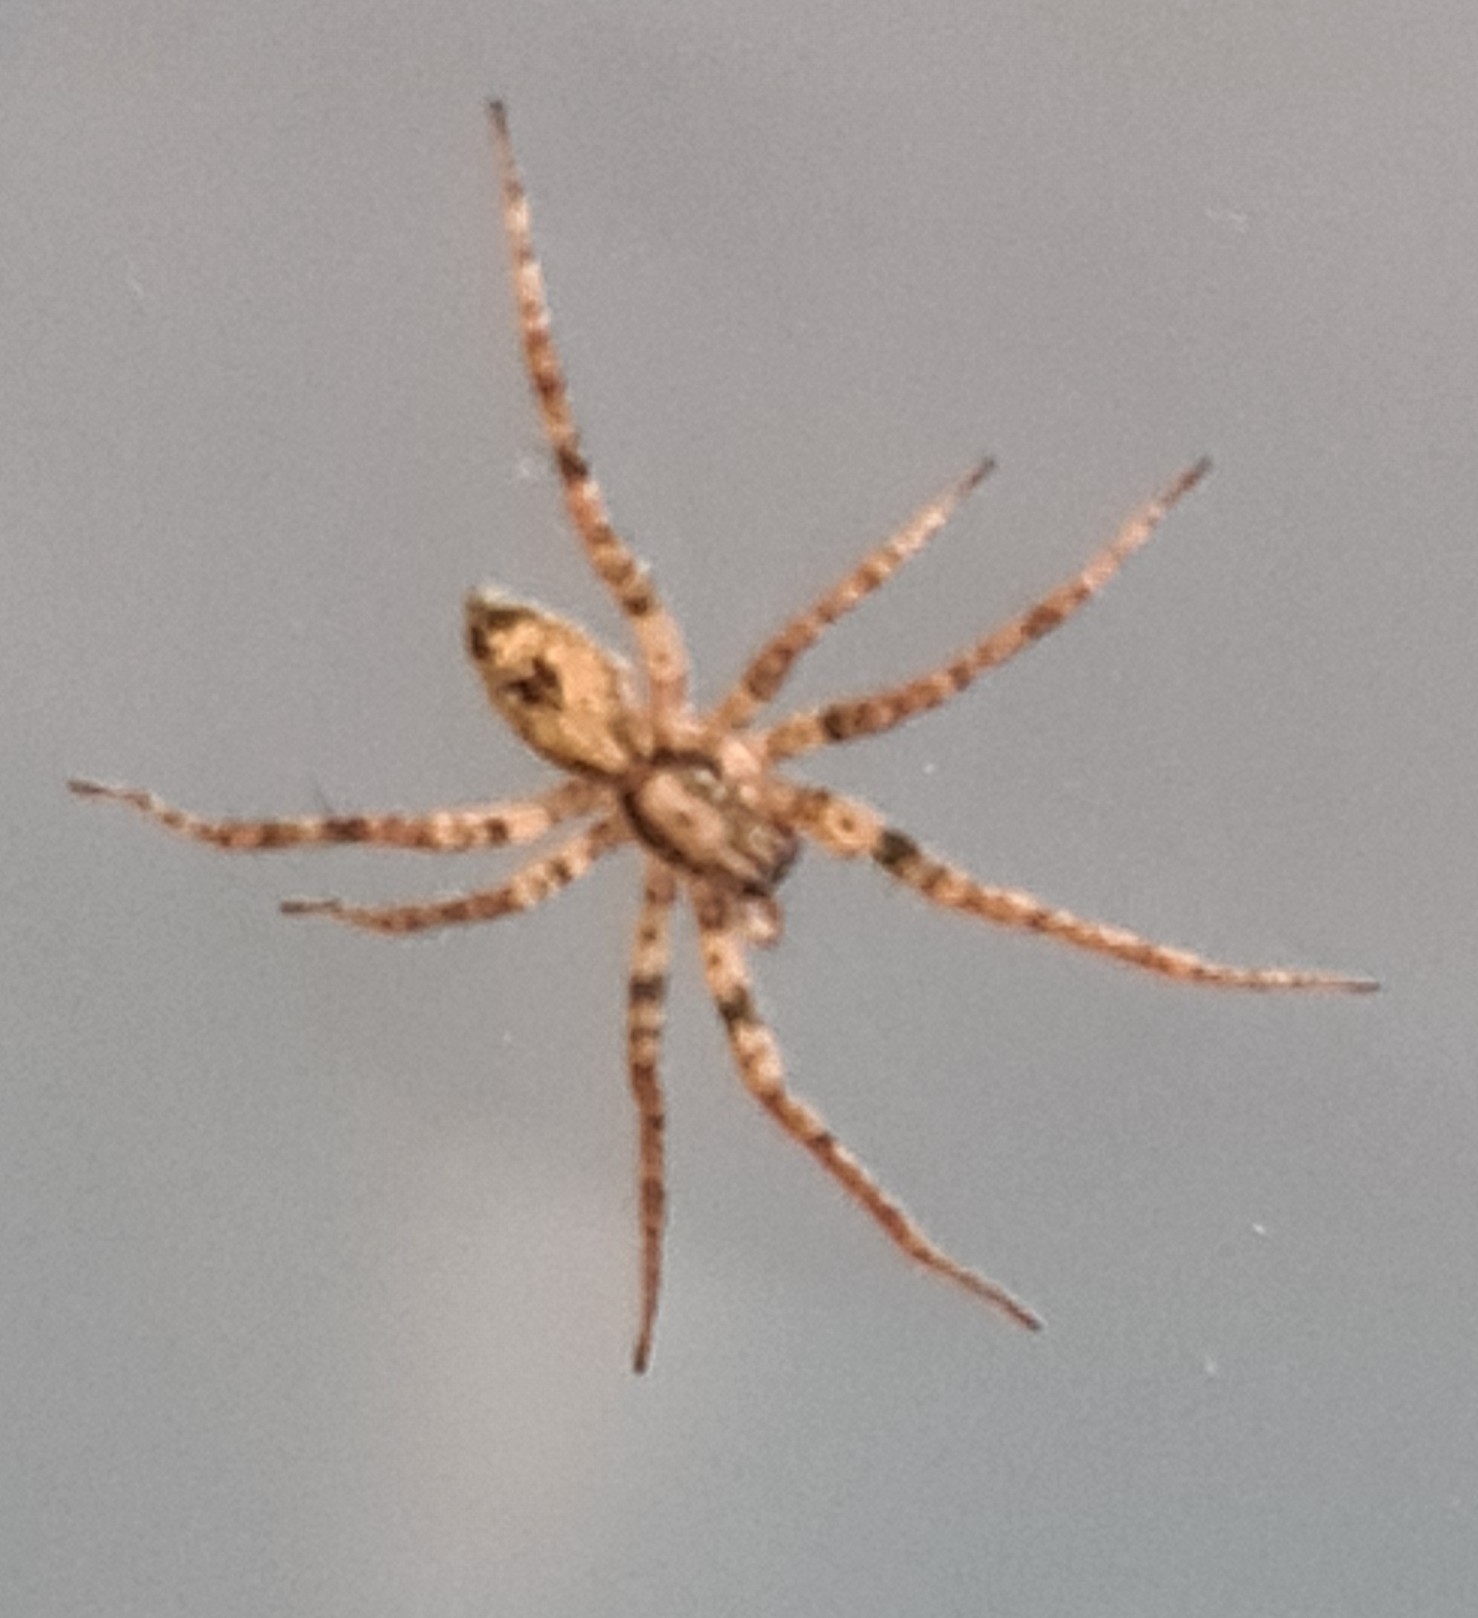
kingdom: Animalia
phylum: Arthropoda
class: Arachnida
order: Araneae
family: Anyphaenidae
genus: Anyphaena
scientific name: Anyphaena accentuata
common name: Buzzing spider
